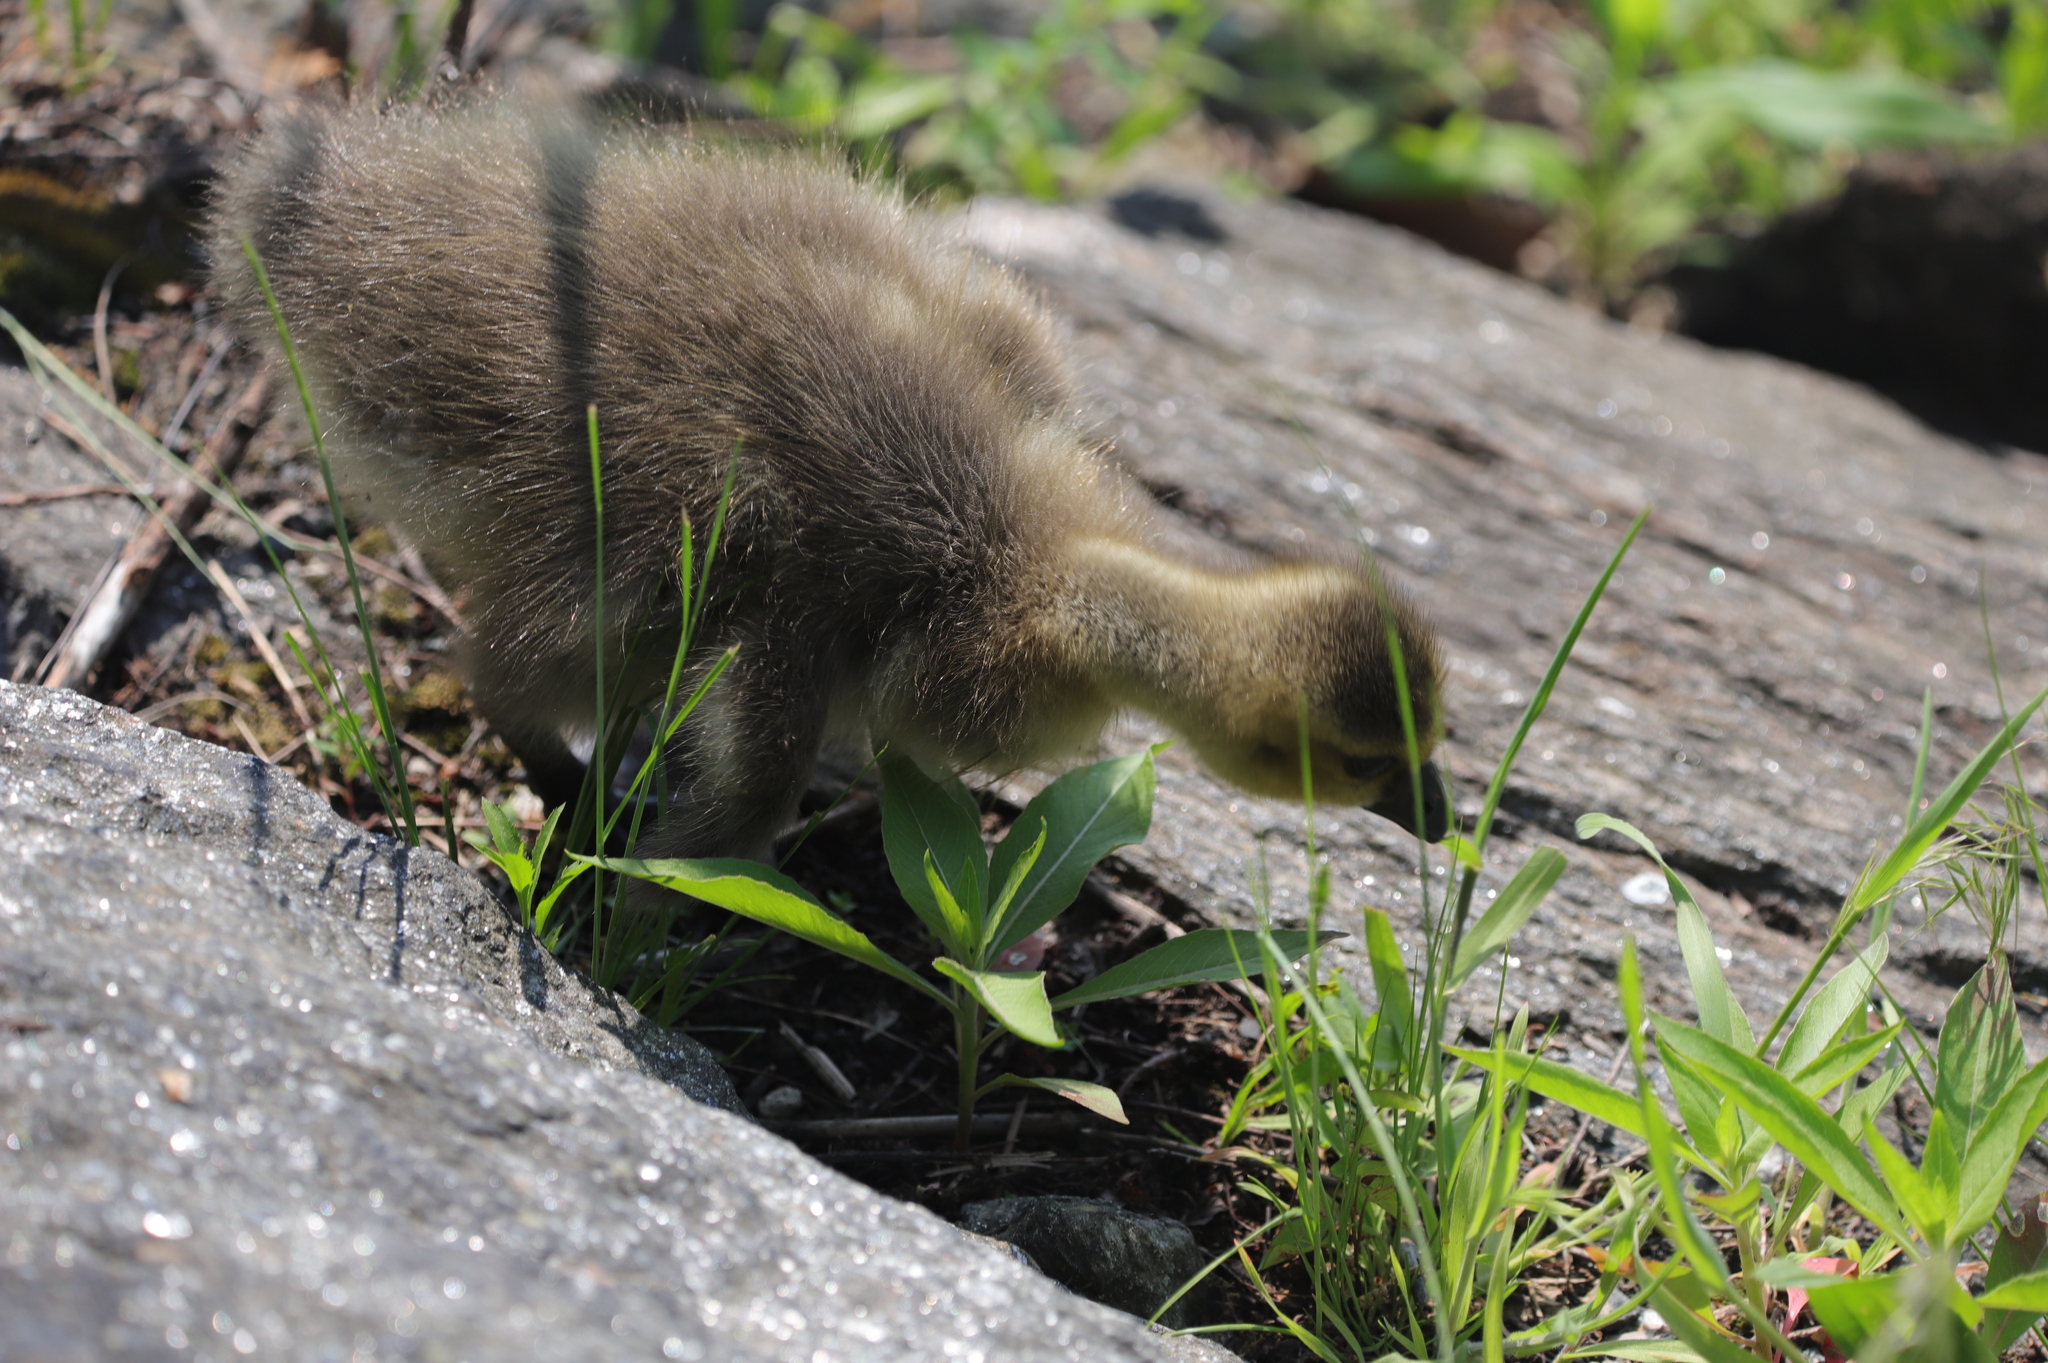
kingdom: Animalia
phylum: Chordata
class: Aves
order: Anseriformes
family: Anatidae
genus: Branta
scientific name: Branta canadensis
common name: Canada goose
